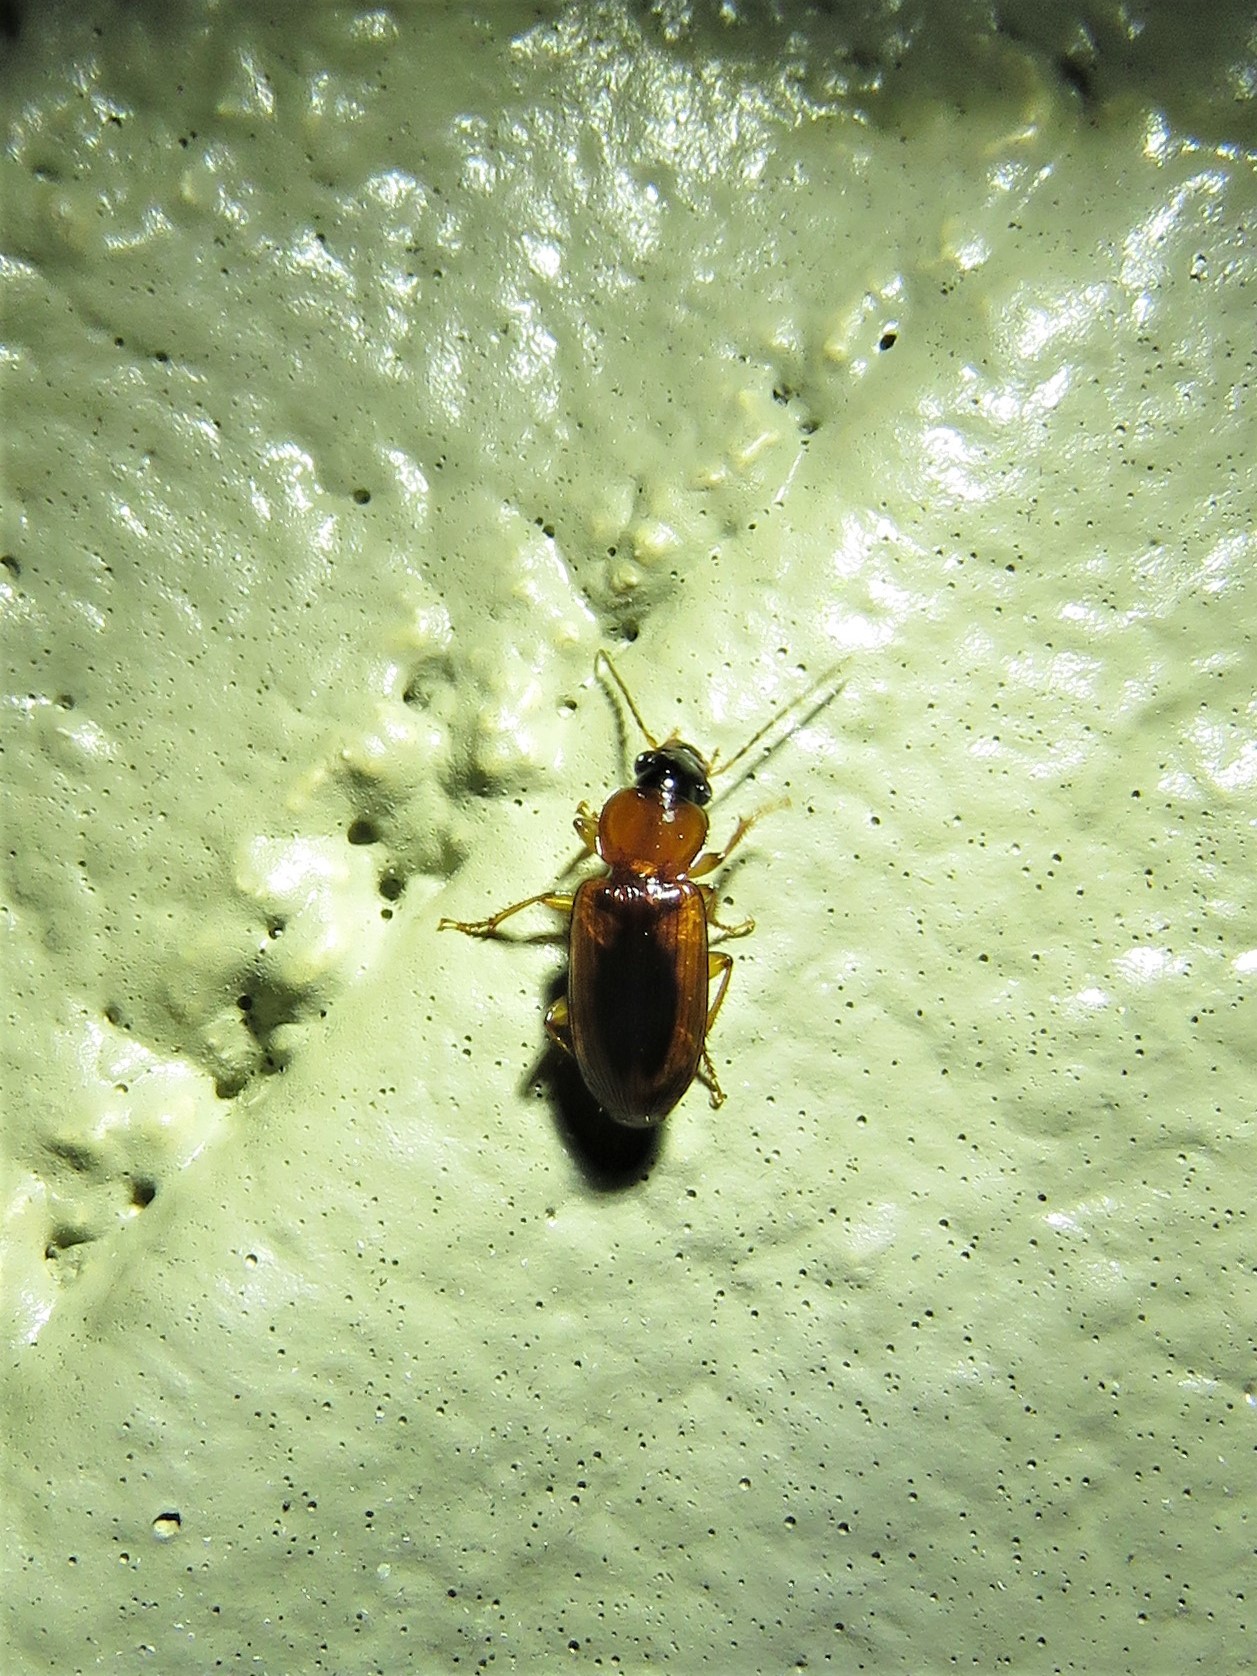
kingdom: Animalia
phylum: Arthropoda
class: Insecta
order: Coleoptera
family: Carabidae
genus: Stenolophus
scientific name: Stenolophus dissimilis
